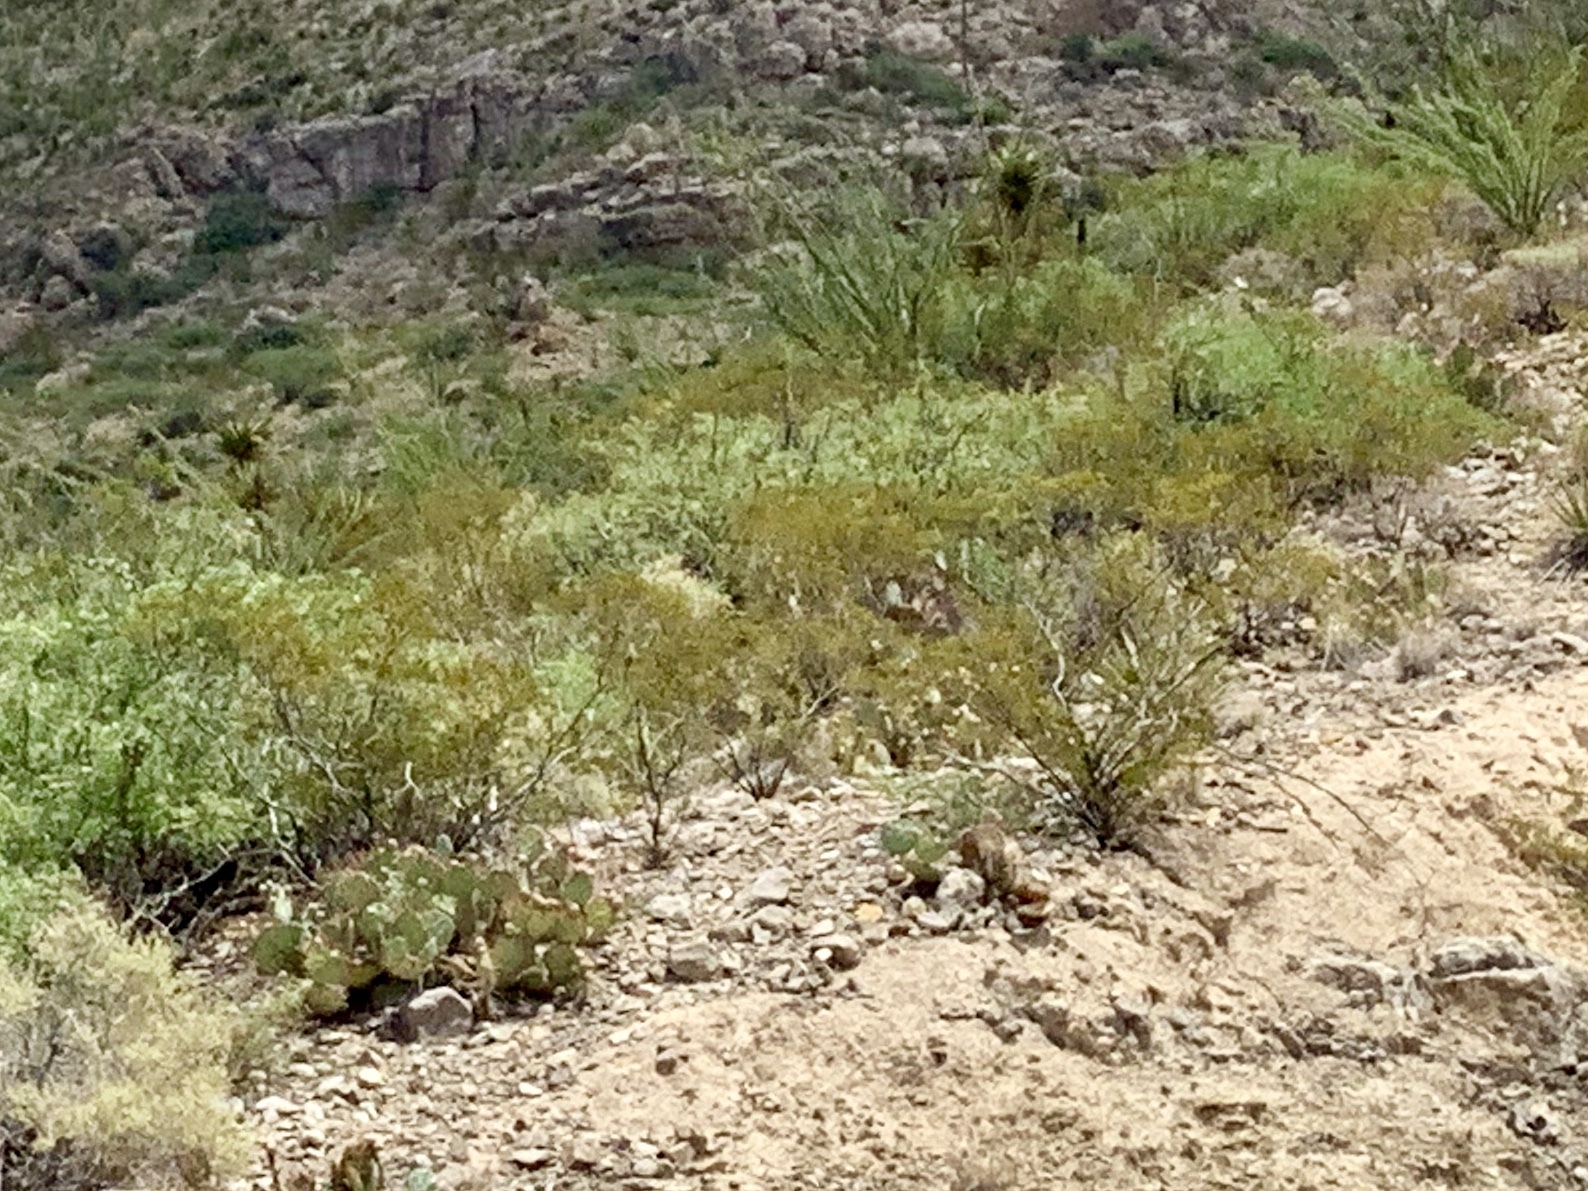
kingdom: Plantae
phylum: Tracheophyta
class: Magnoliopsida
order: Zygophyllales
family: Zygophyllaceae
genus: Larrea
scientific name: Larrea tridentata
